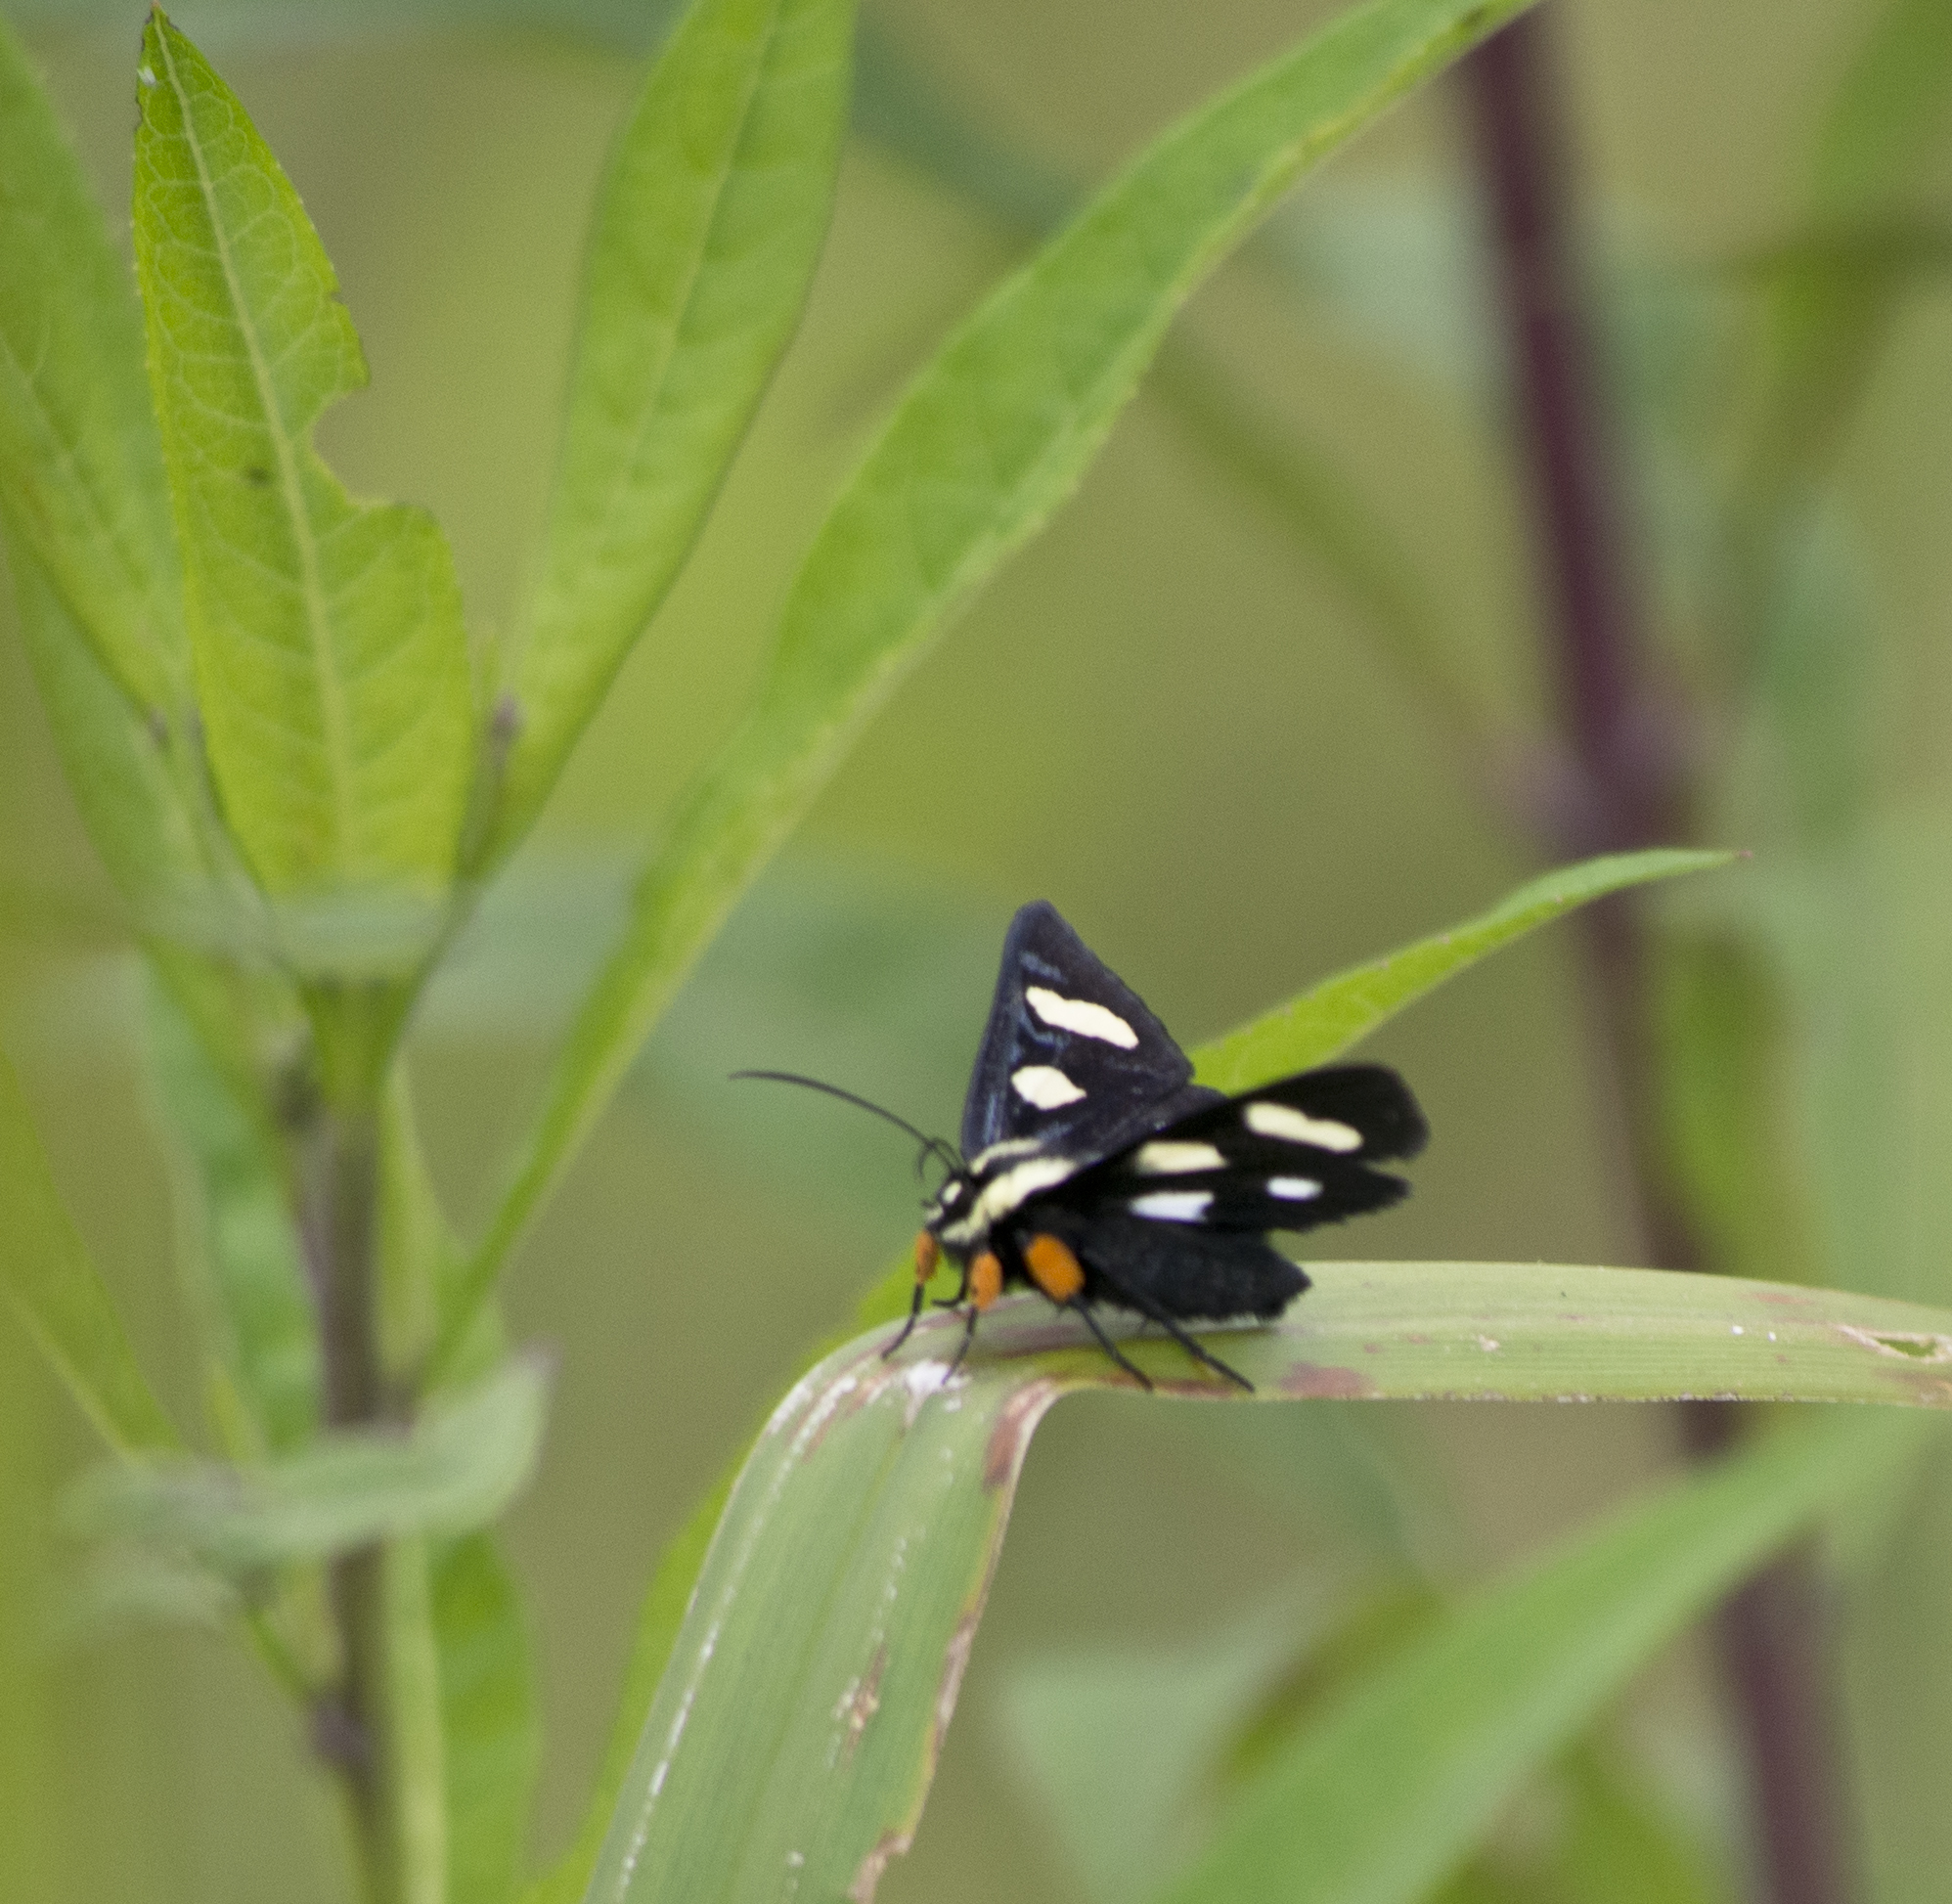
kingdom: Animalia
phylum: Arthropoda
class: Insecta
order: Lepidoptera
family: Noctuidae
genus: Alypia
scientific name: Alypia octomaculata
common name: Eight-spotted forester
